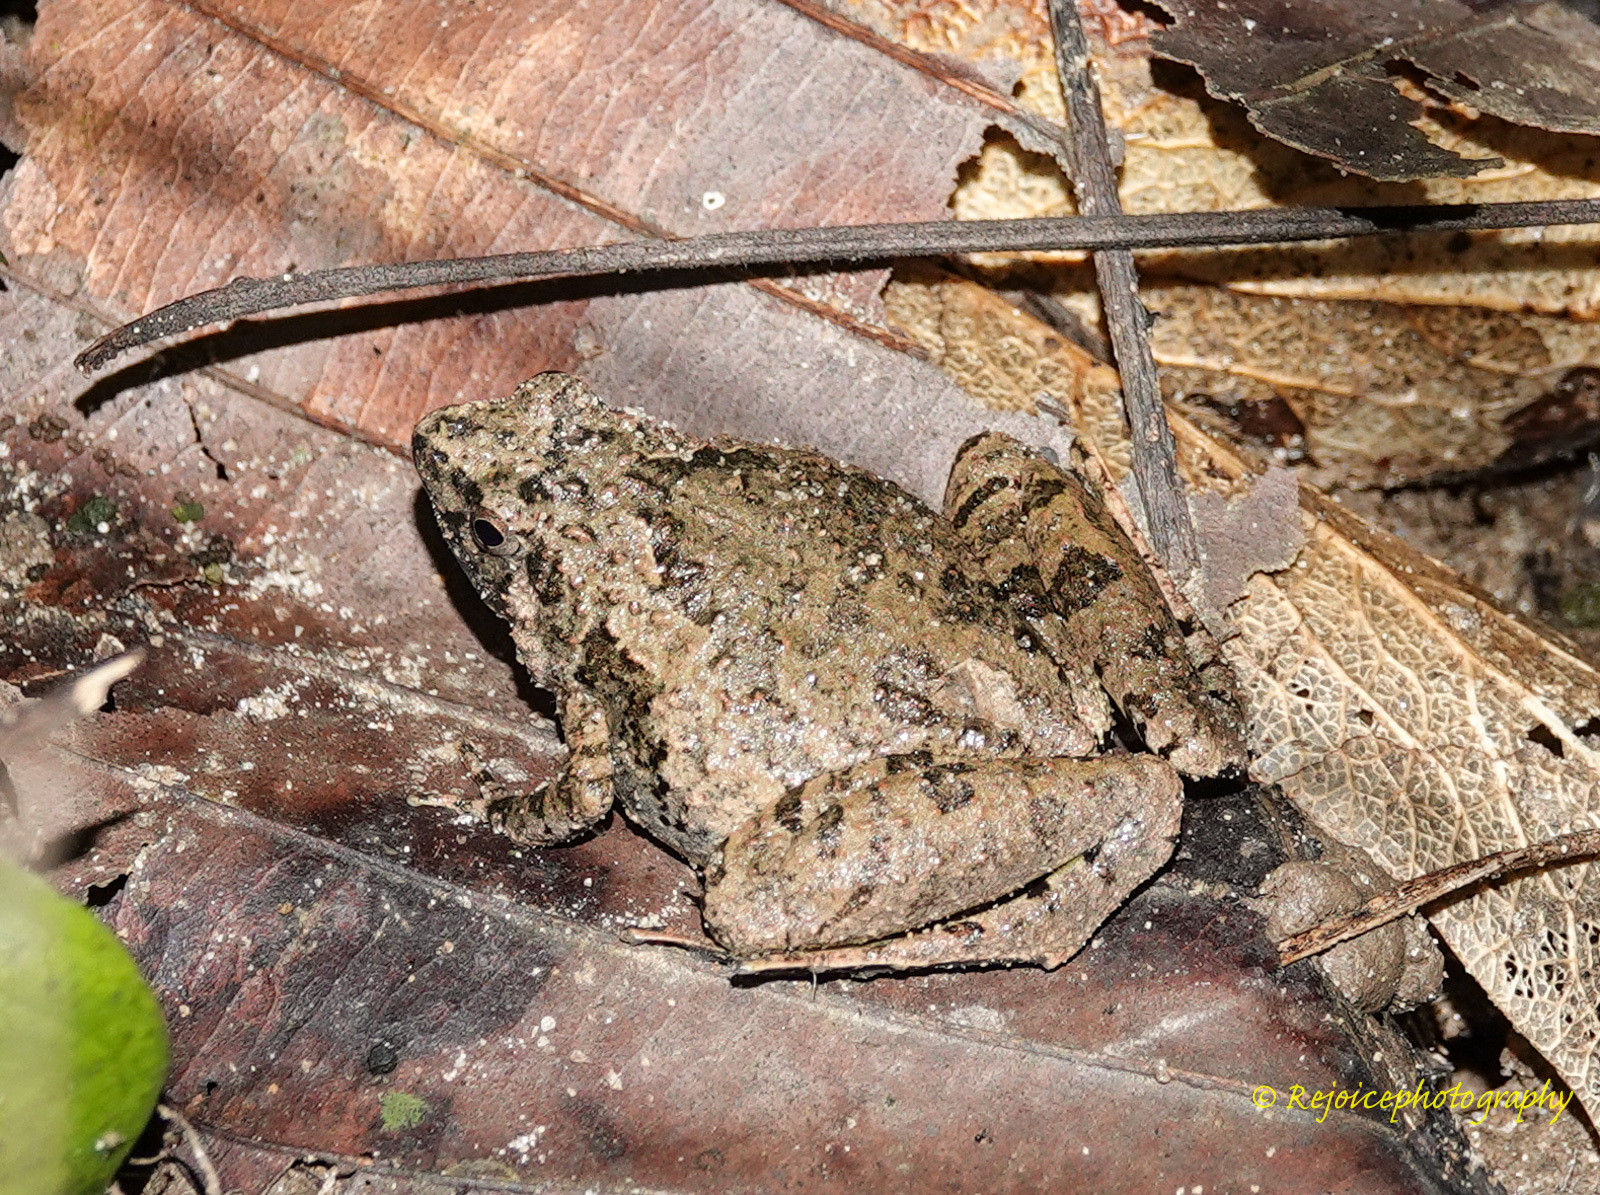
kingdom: Animalia
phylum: Chordata
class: Amphibia
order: Anura
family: Microhylidae
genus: Microhyla
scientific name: Microhyla berdmorei
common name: Berdmore’s narrow-mouthed frog,large pygmy frog
